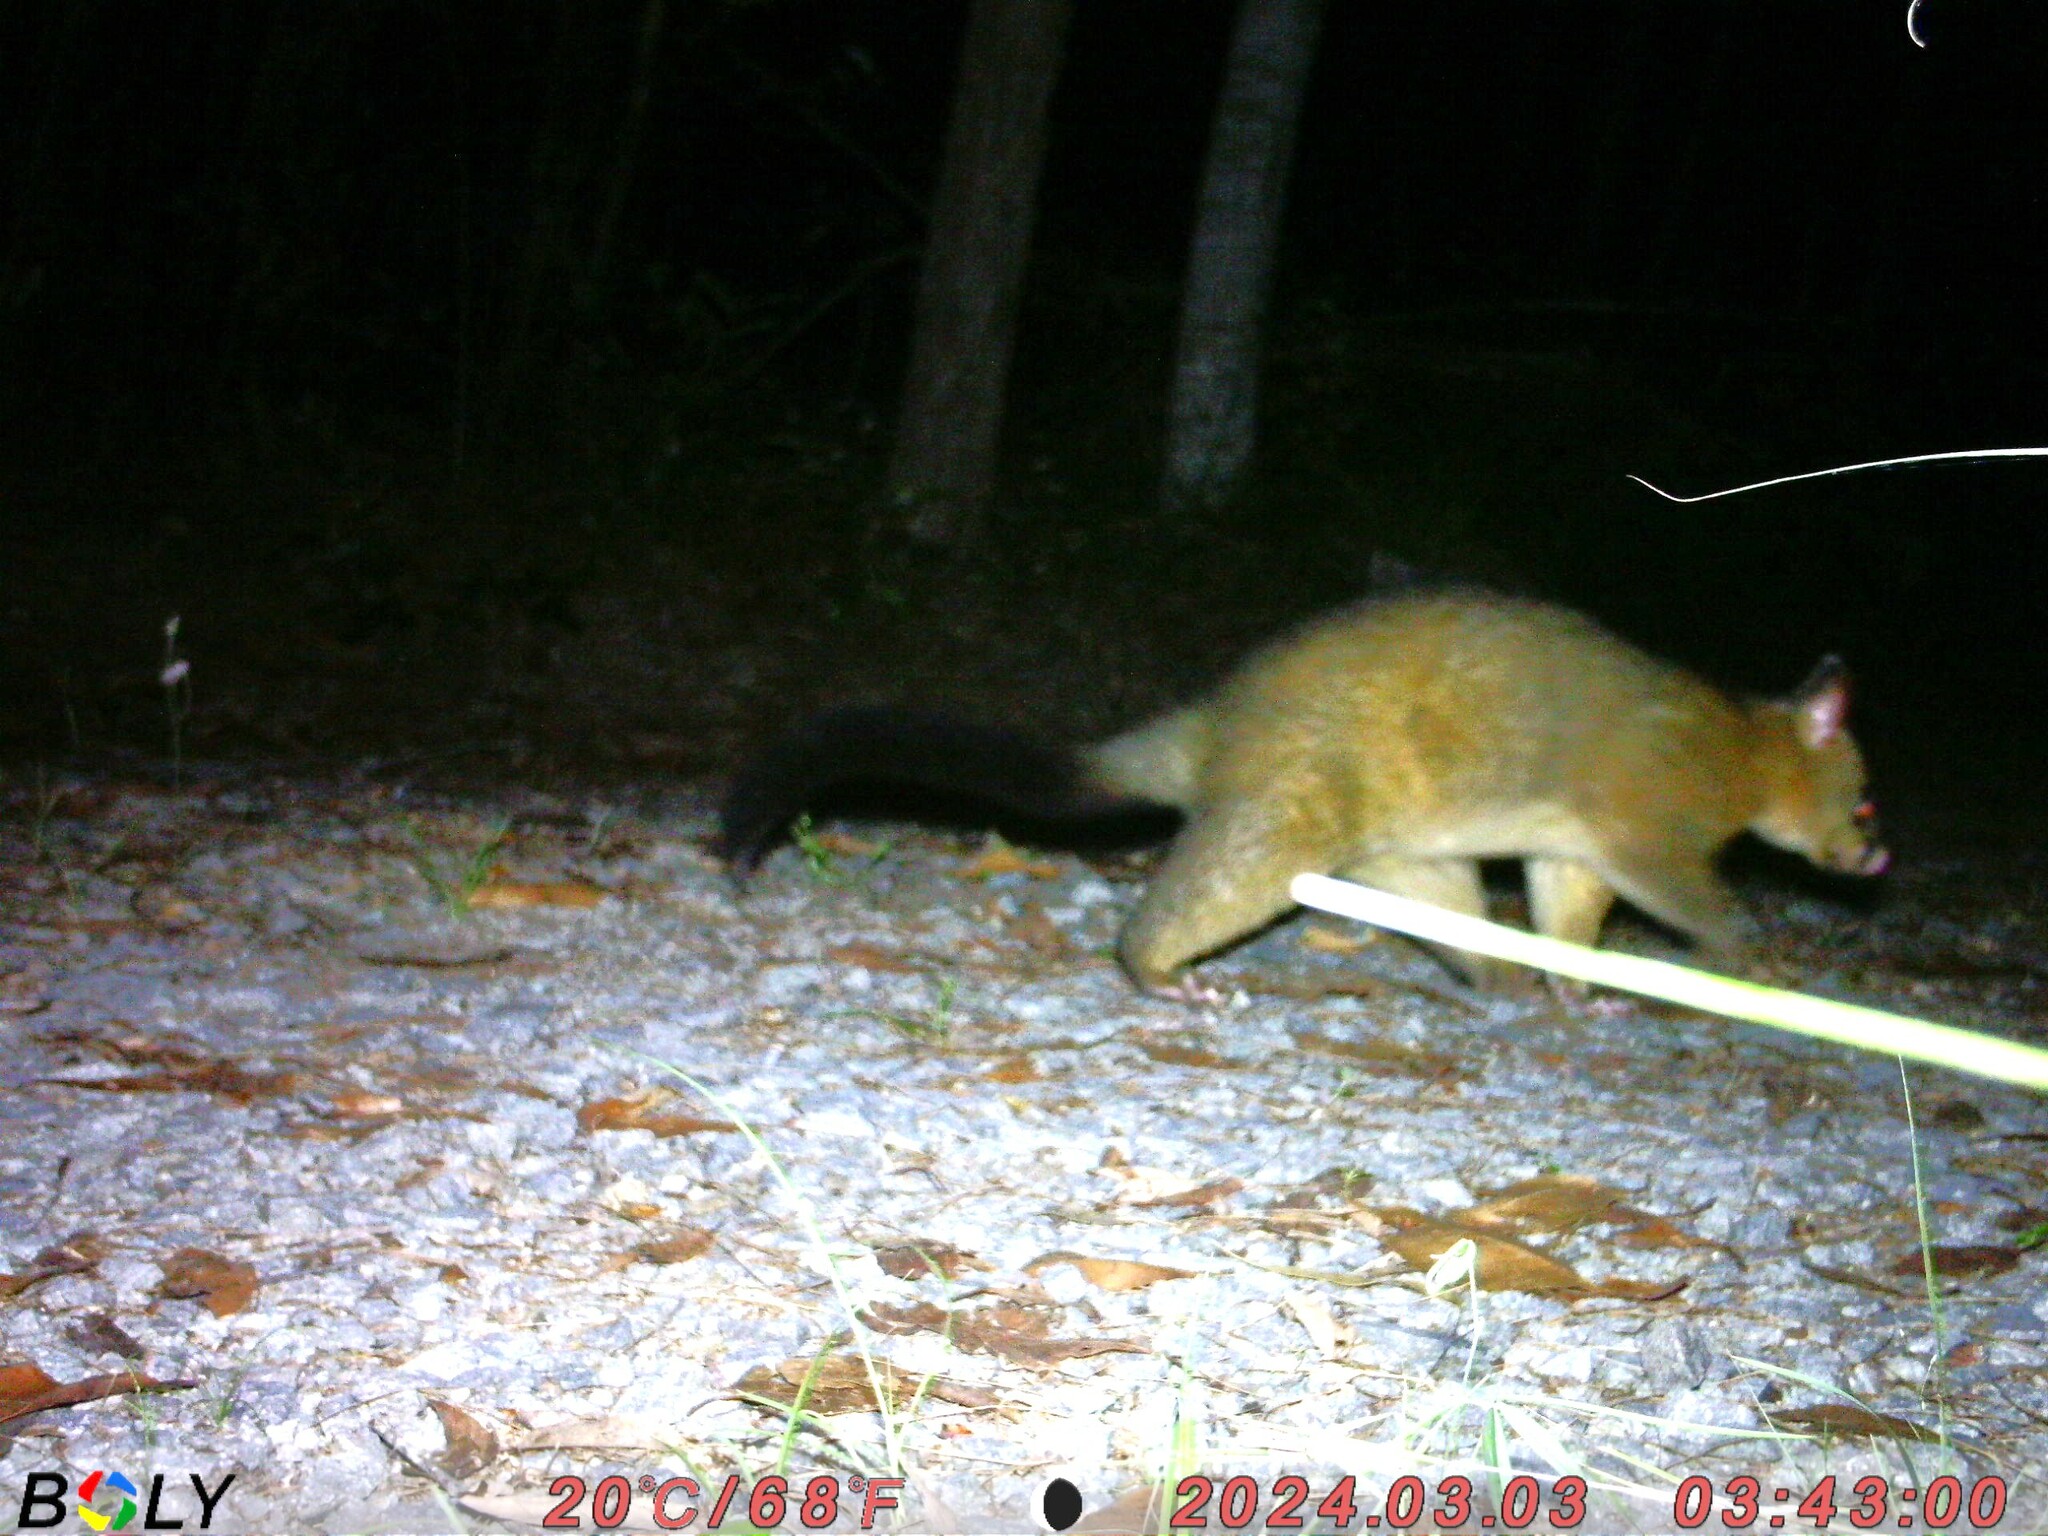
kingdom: Animalia
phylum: Chordata
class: Mammalia
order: Diprotodontia
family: Phalangeridae
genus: Trichosurus
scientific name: Trichosurus vulpecula
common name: Common brushtail
